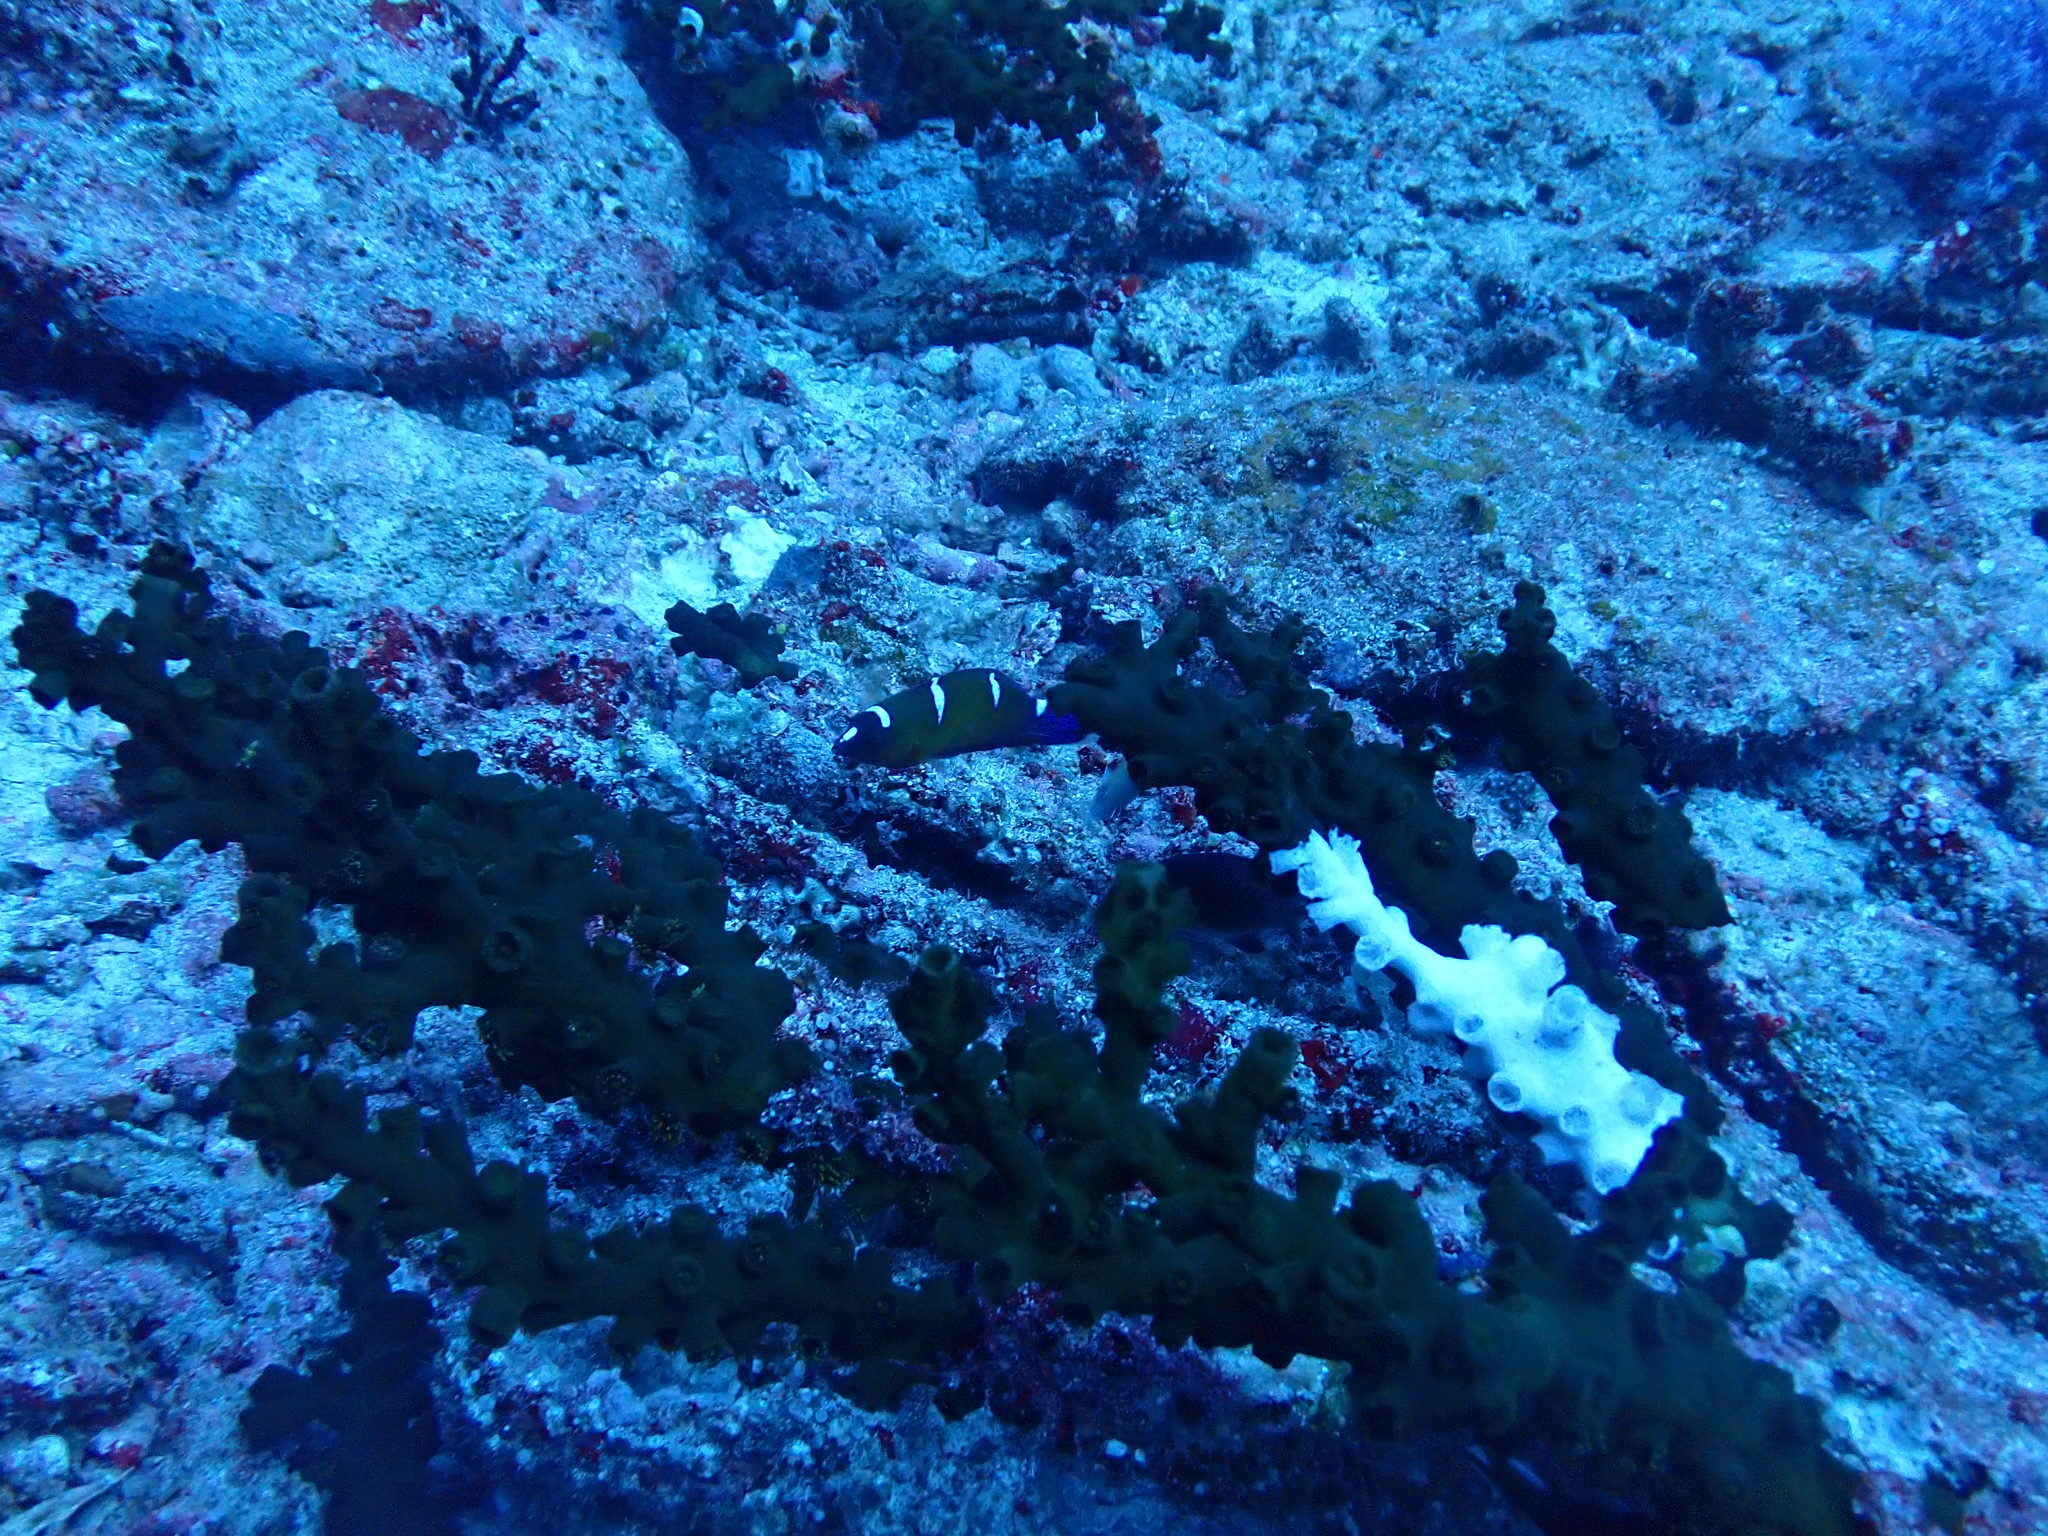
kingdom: Animalia
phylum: Cnidaria
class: Anthozoa
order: Scleractinia
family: Dendrophylliidae
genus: Tubastraea
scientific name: Tubastraea micranthus
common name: Black sun coral
